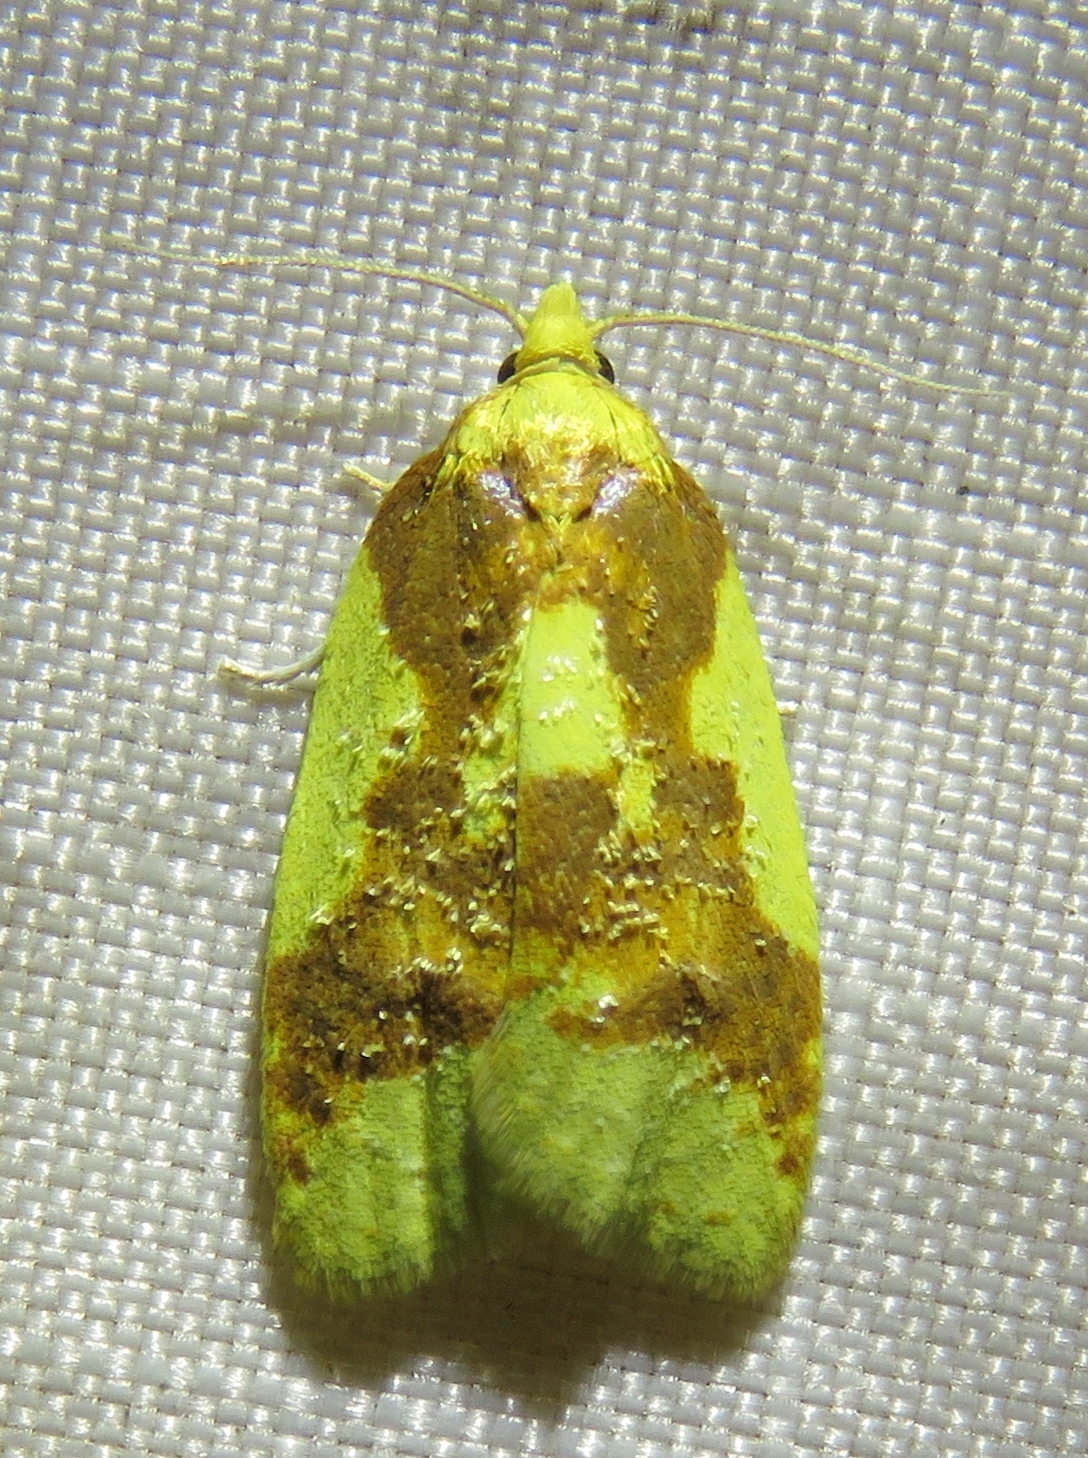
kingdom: Animalia
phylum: Arthropoda
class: Insecta
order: Lepidoptera
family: Tortricidae
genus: Sparganothis
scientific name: Sparganothis pulcherrimana
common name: Beautiful sparganothis
